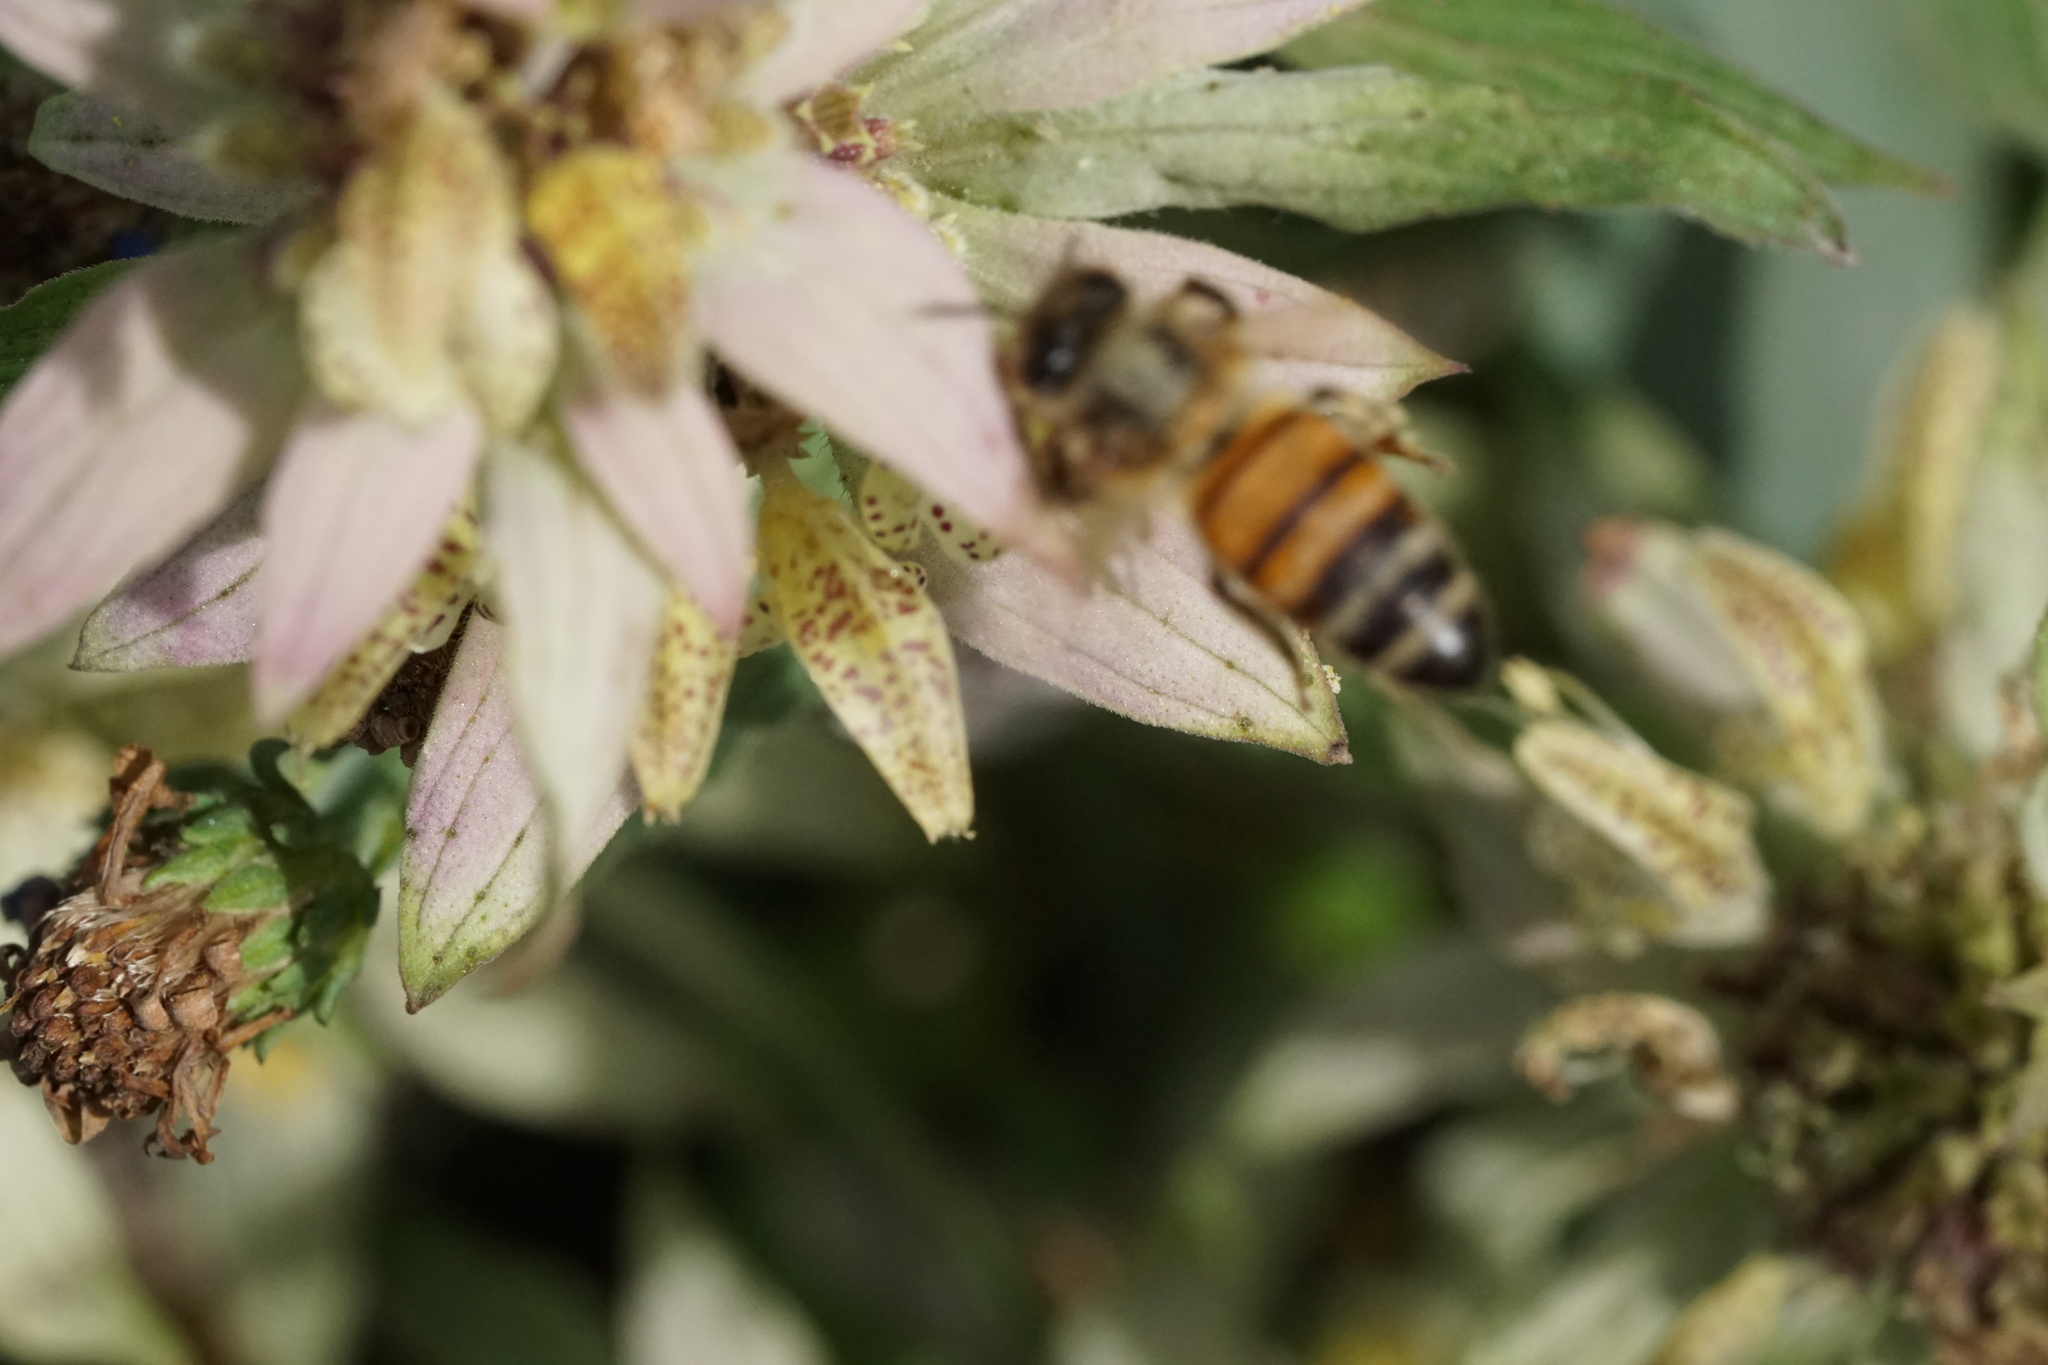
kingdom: Animalia
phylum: Arthropoda
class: Insecta
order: Hymenoptera
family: Apidae
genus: Apis
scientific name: Apis mellifera
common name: Honey bee
